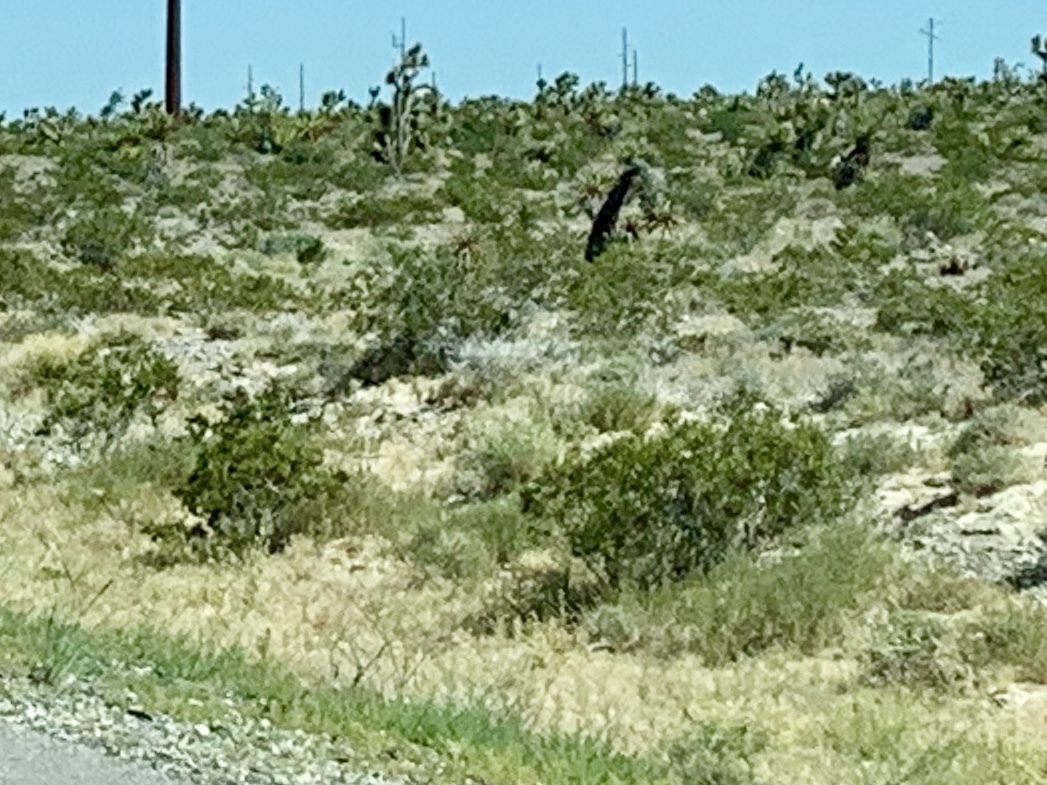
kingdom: Plantae
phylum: Tracheophyta
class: Magnoliopsida
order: Zygophyllales
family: Zygophyllaceae
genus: Larrea
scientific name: Larrea tridentata
